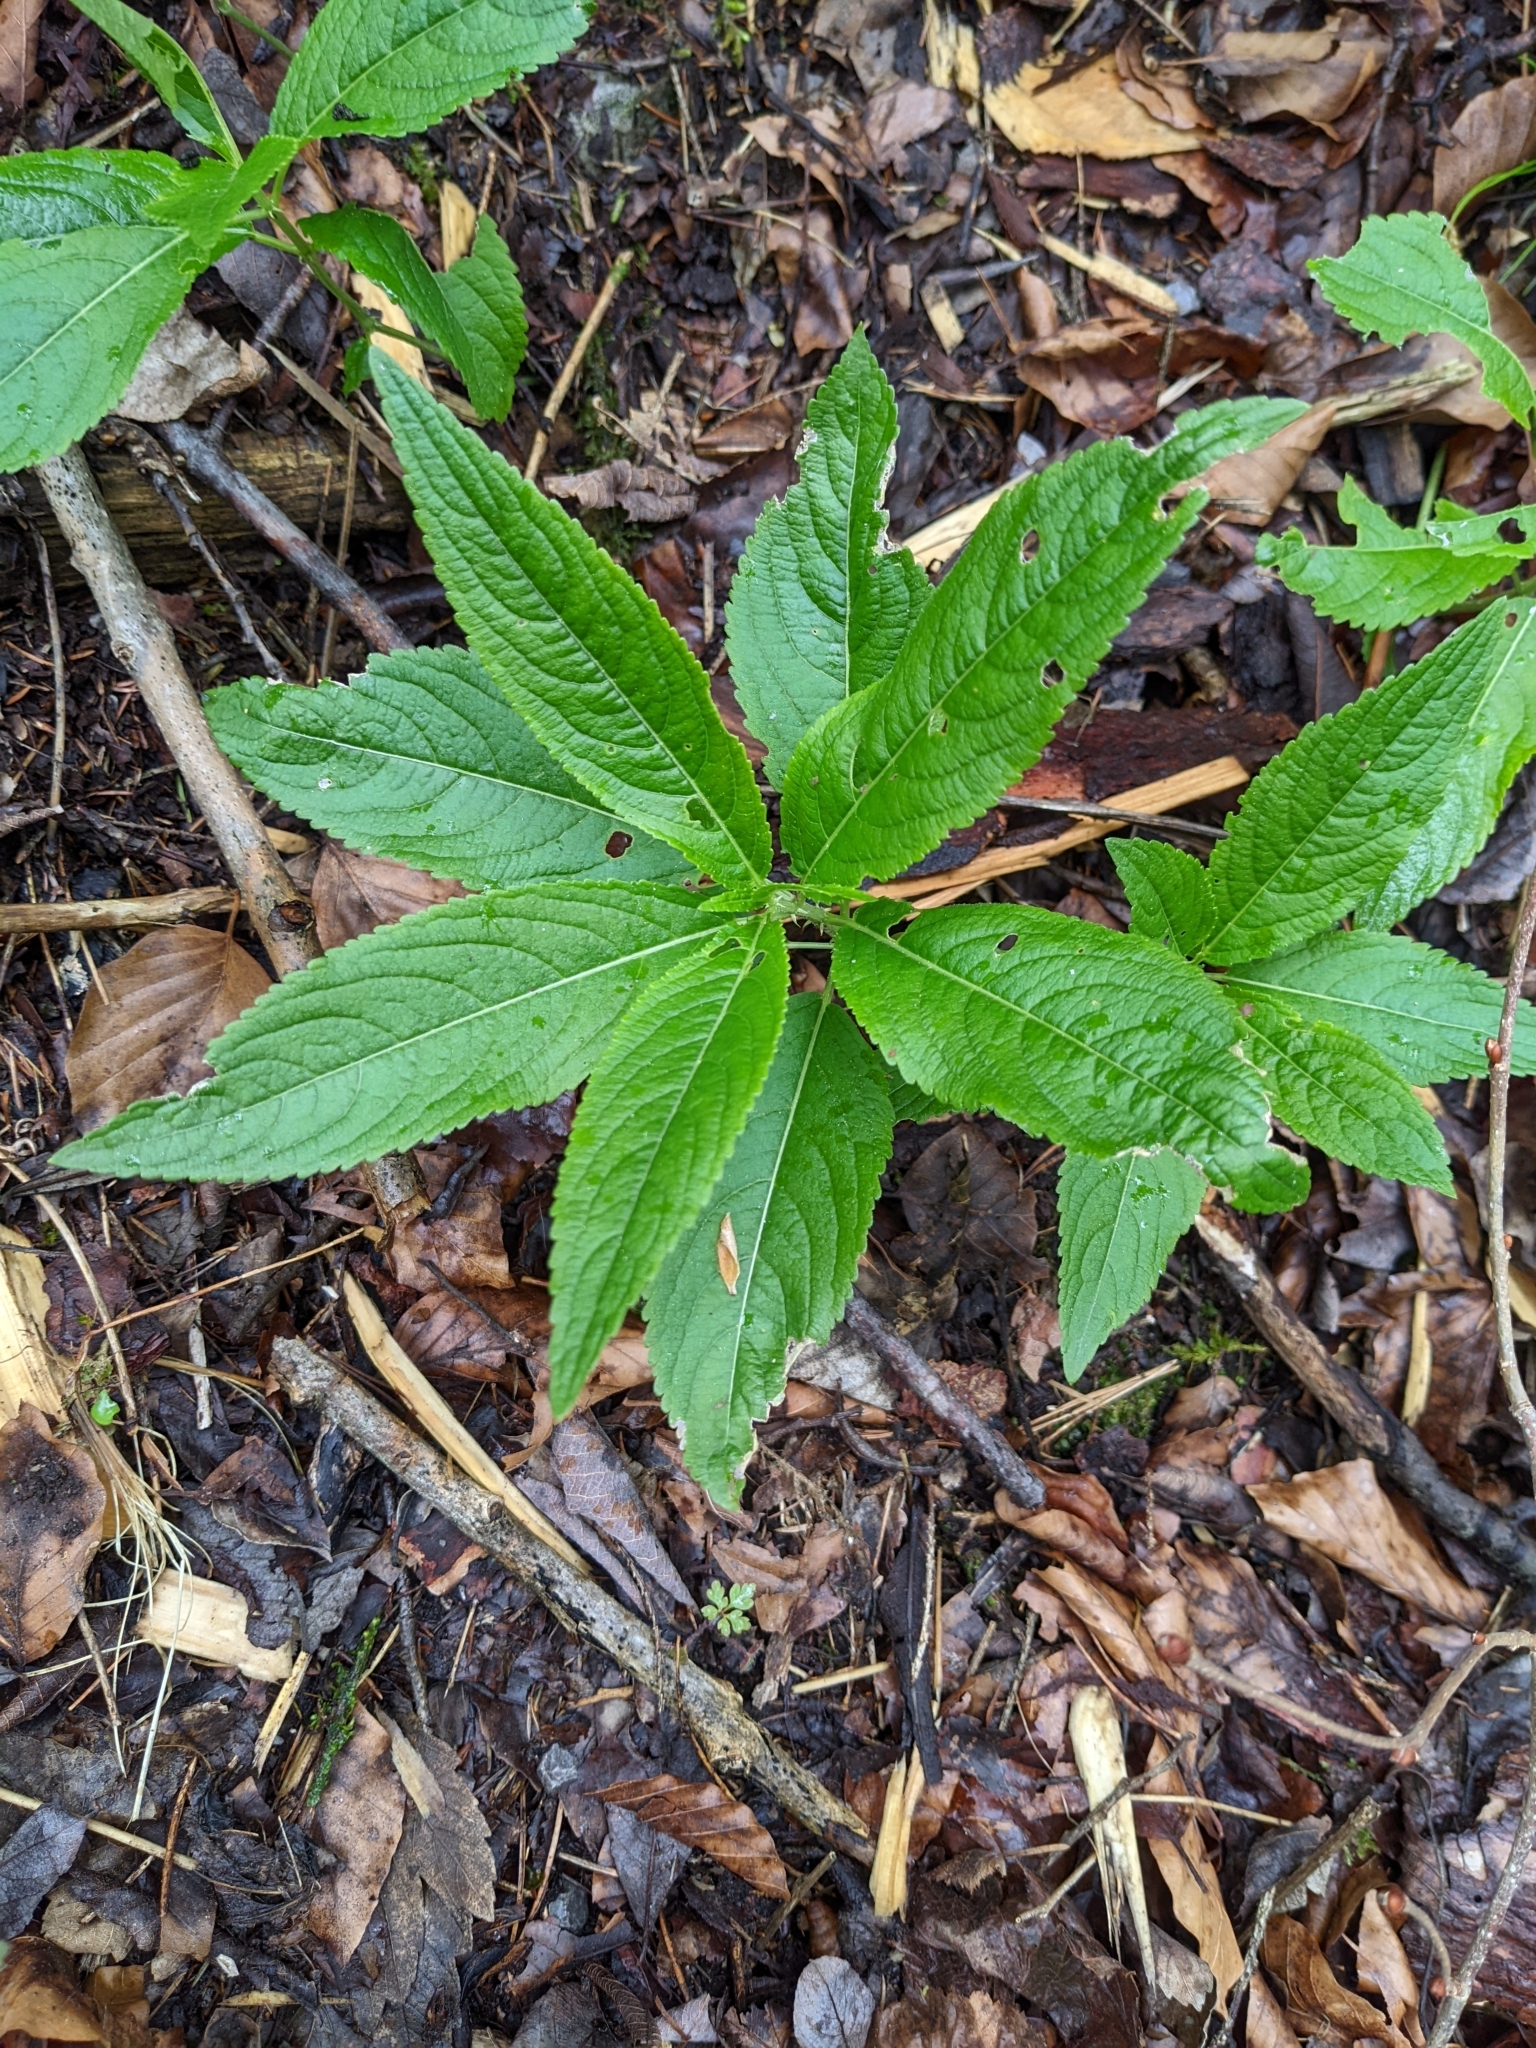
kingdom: Plantae
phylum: Tracheophyta
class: Magnoliopsida
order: Malpighiales
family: Euphorbiaceae
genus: Mercurialis
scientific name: Mercurialis perennis
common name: Dog mercury
